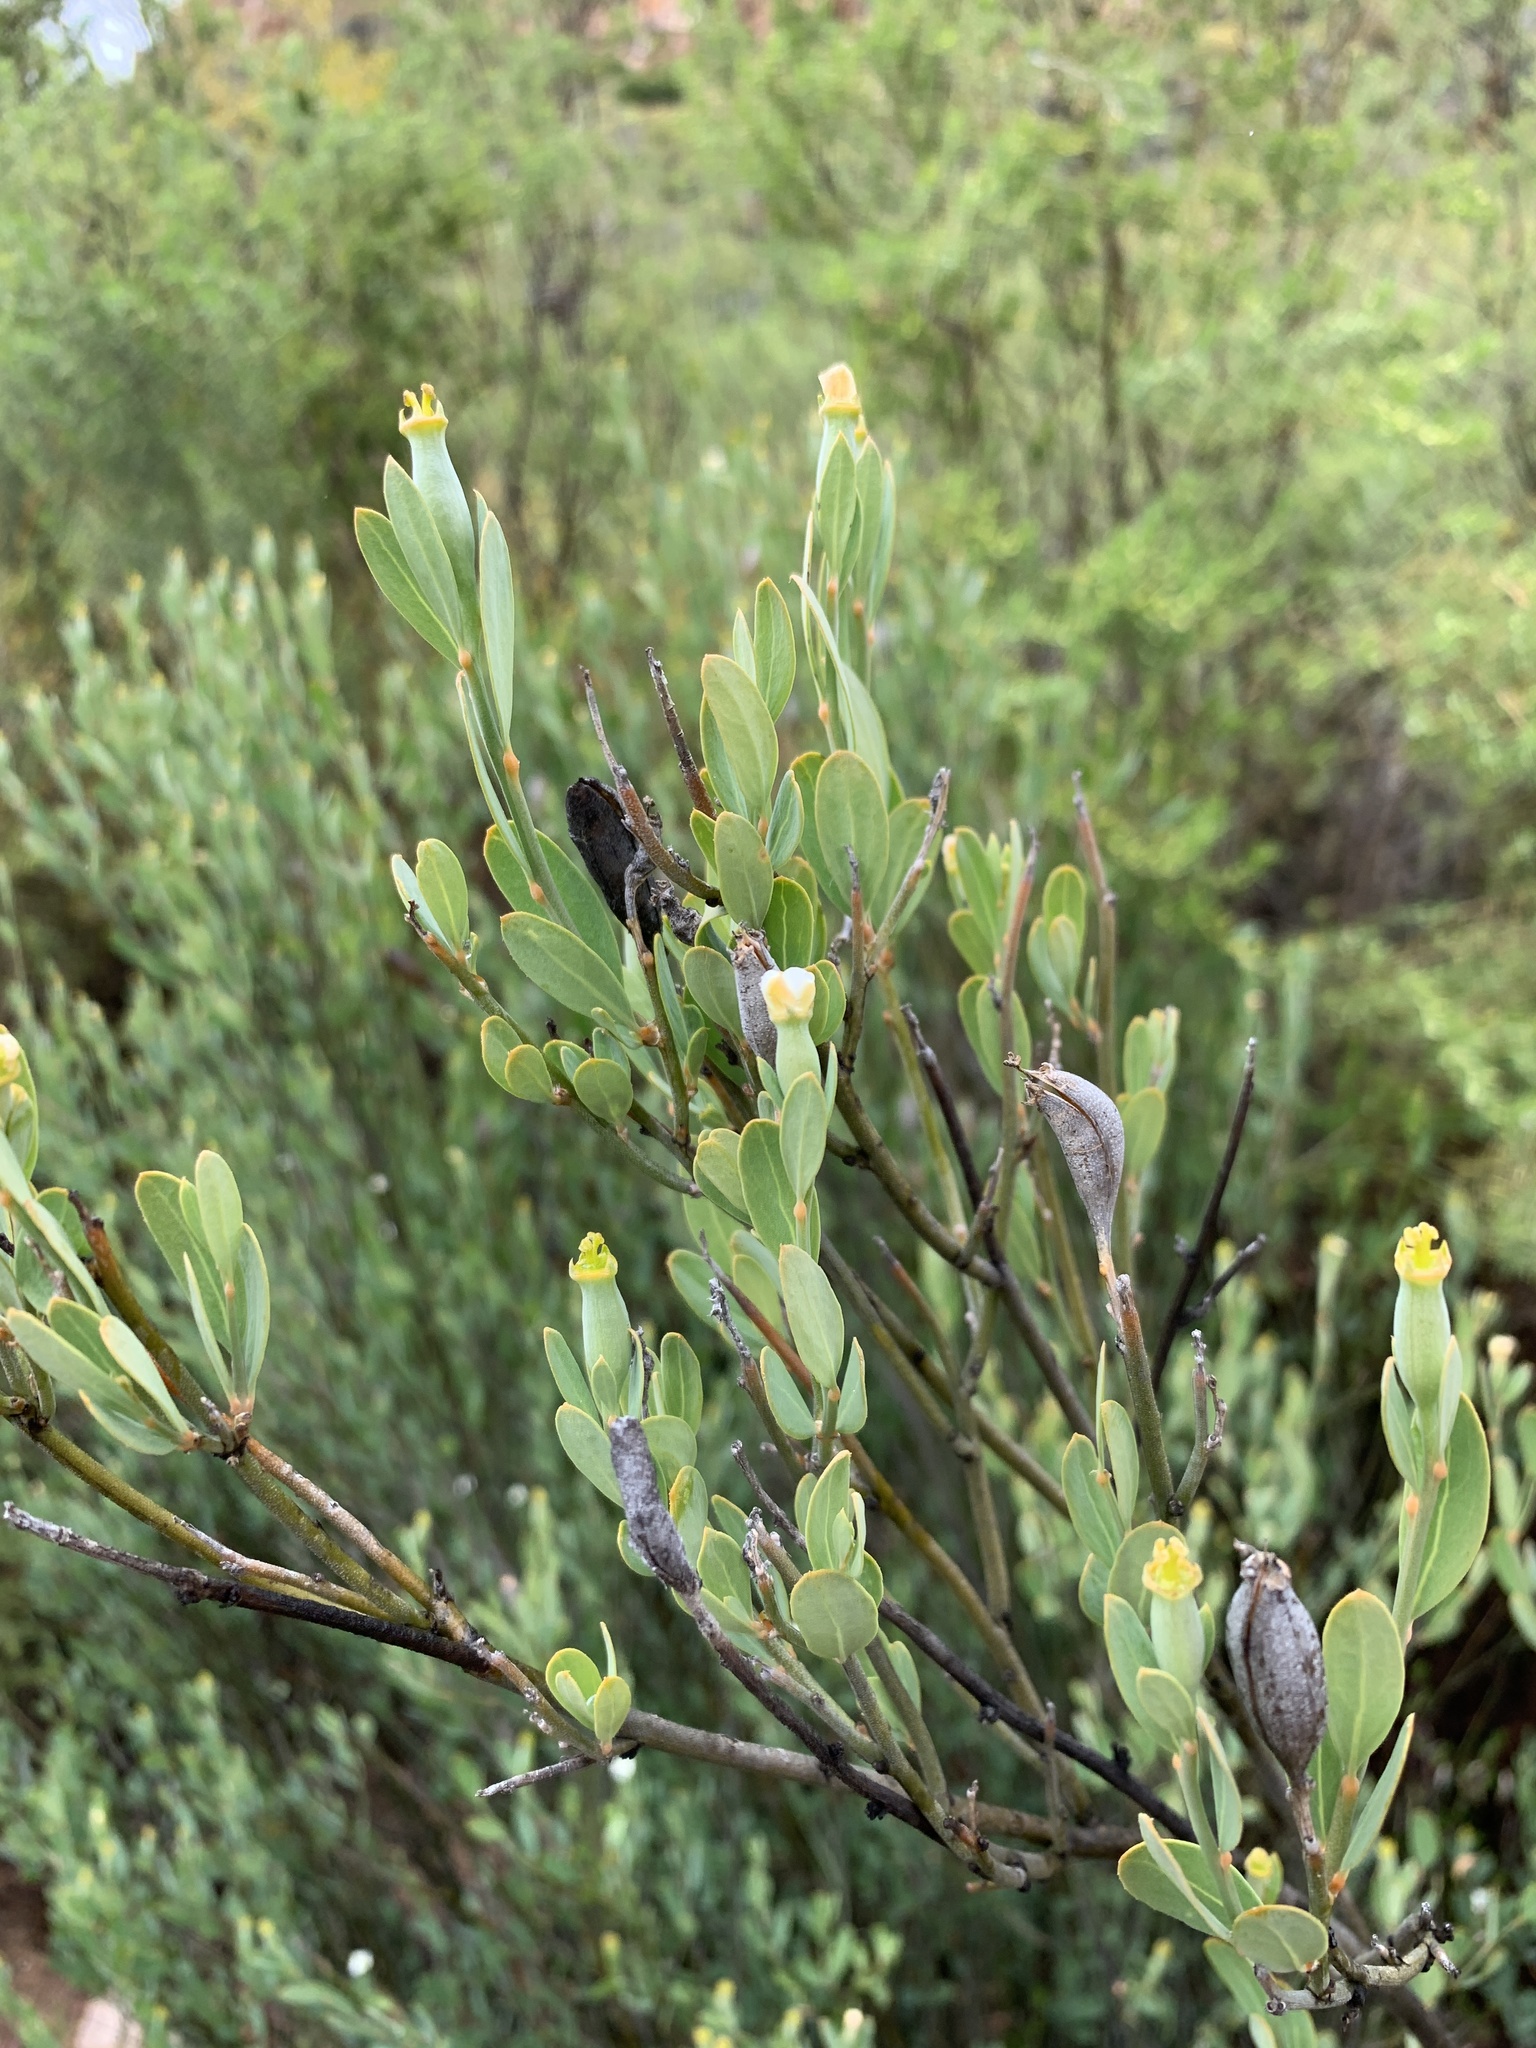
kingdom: Plantae
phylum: Tracheophyta
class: Magnoliopsida
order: Solanales
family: Montiniaceae
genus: Montinia
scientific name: Montinia caryophyllacea
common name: Wild clove-bush
